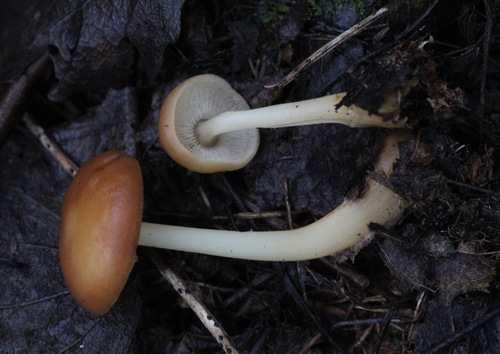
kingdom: Fungi
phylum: Basidiomycota
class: Agaricomycetes
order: Agaricales
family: Omphalotaceae
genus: Gymnopus
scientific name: Gymnopus dryophilus
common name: Penny top
